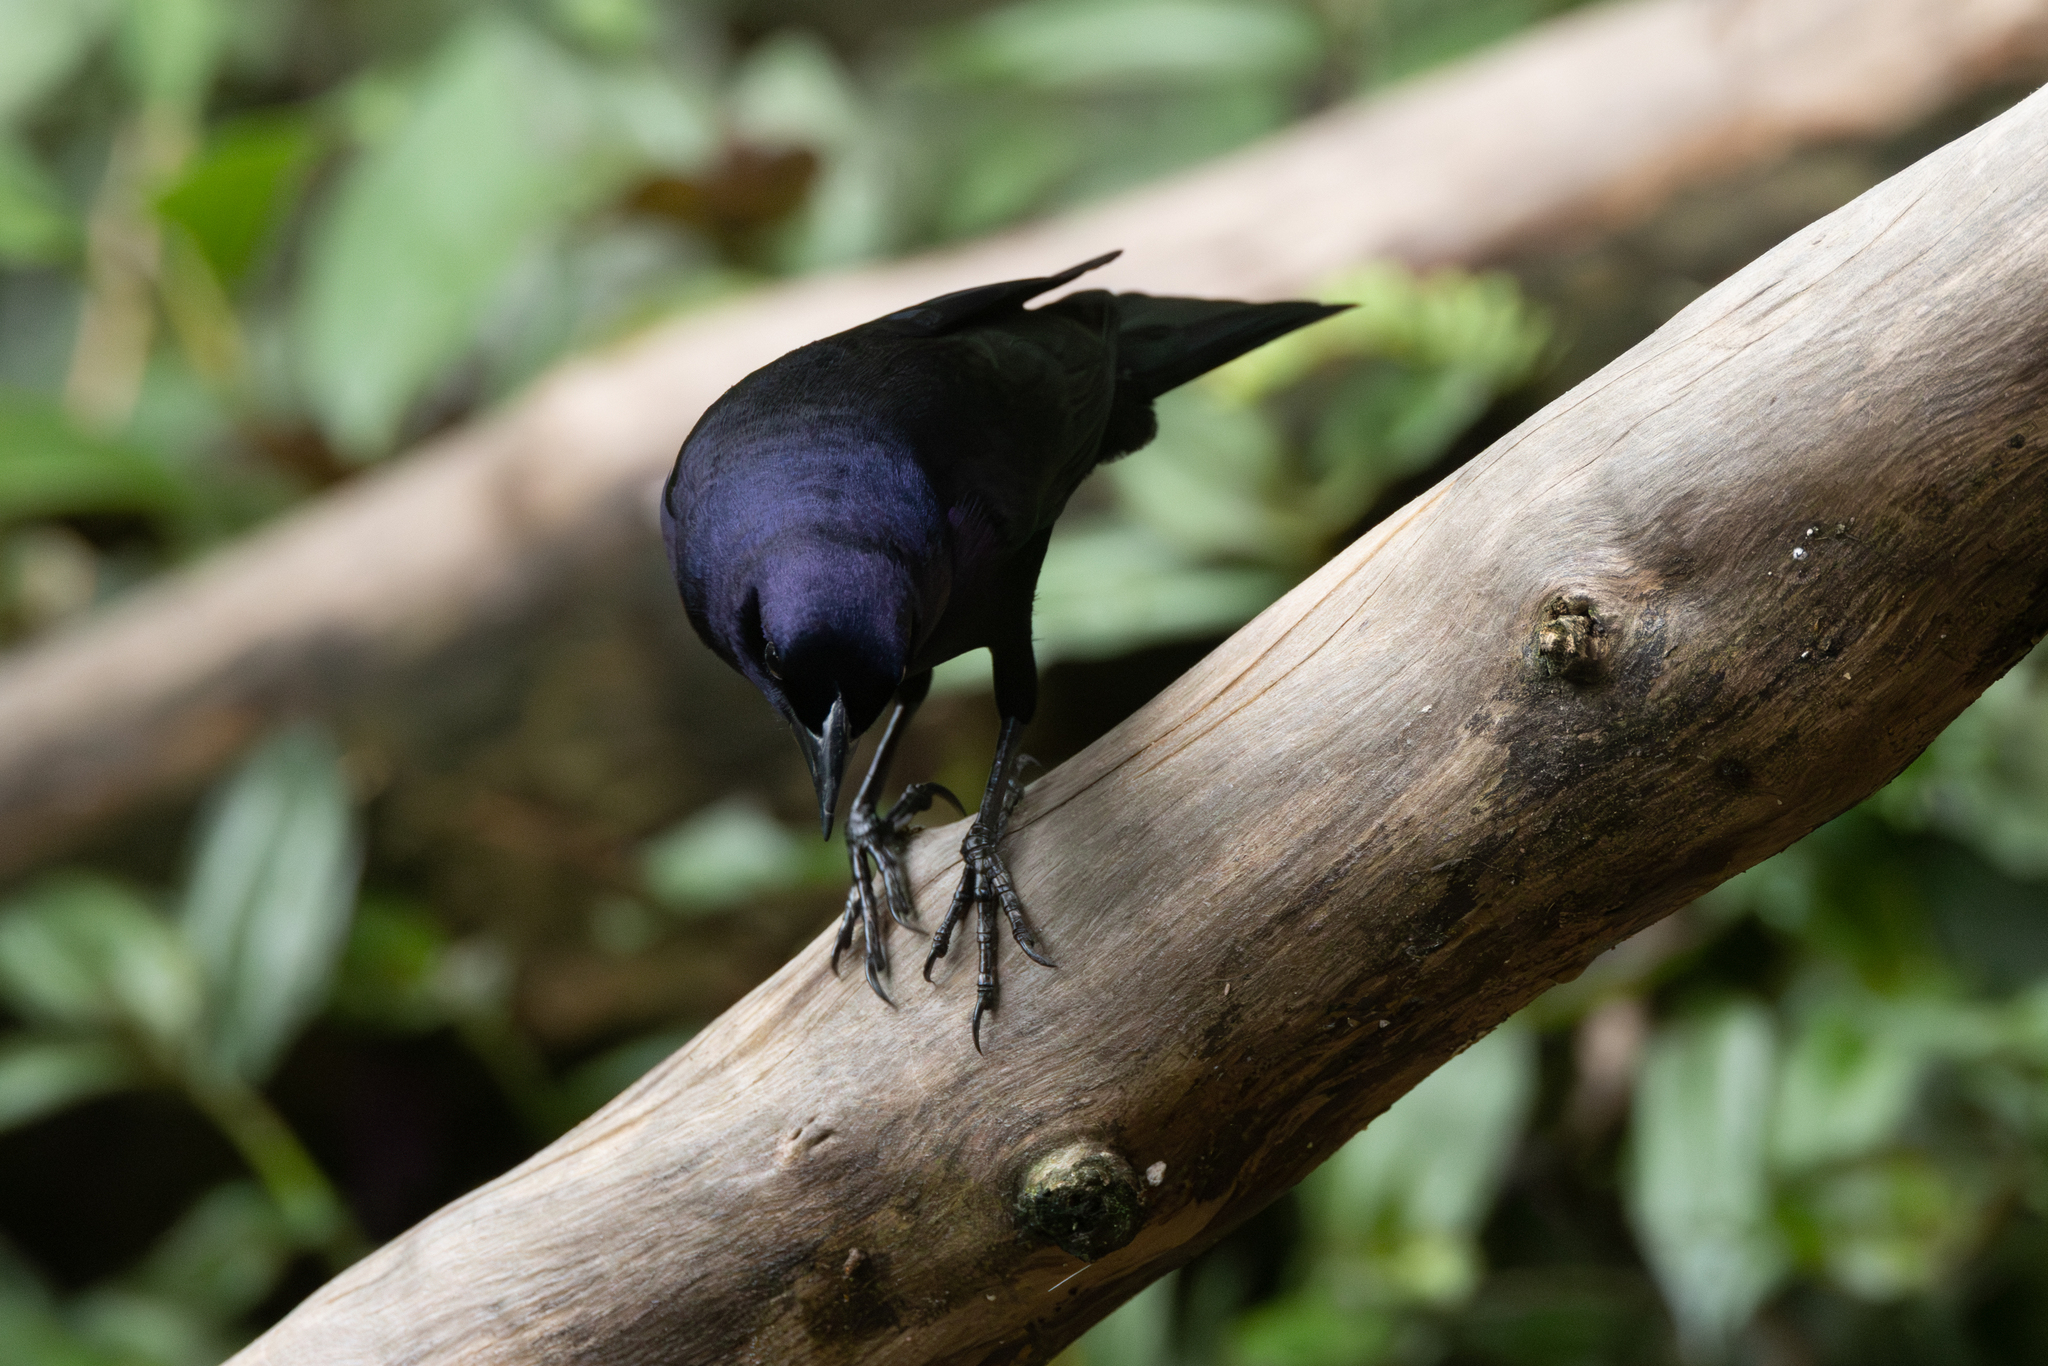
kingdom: Animalia
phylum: Chordata
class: Aves
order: Passeriformes
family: Icteridae
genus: Molothrus
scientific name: Molothrus bonariensis
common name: Shiny cowbird
